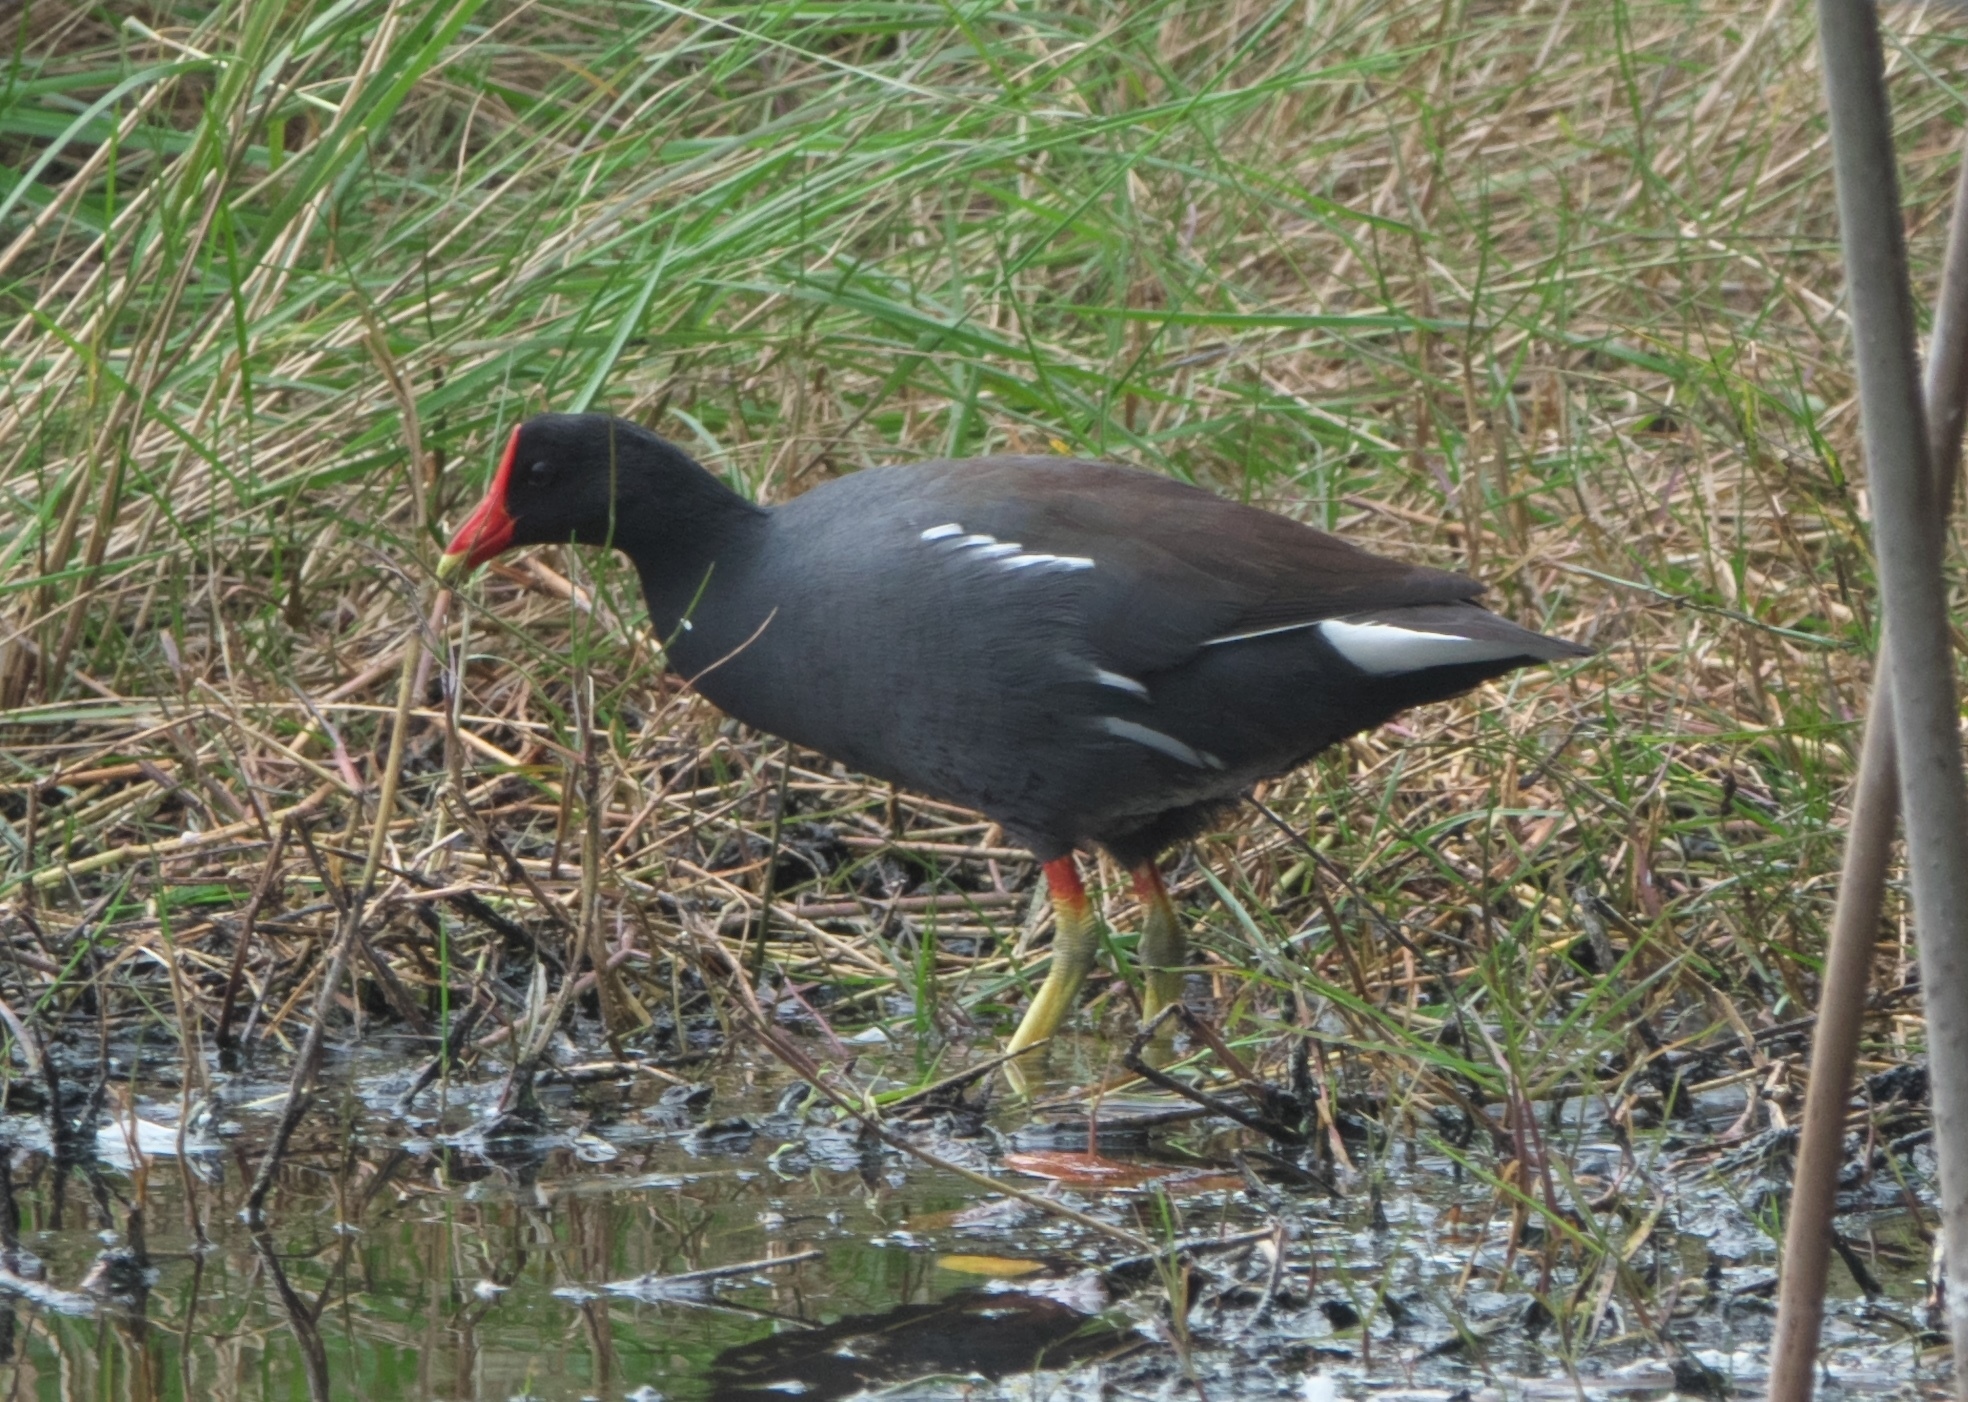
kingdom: Animalia
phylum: Chordata
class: Aves
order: Gruiformes
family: Rallidae
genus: Gallinula
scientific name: Gallinula chloropus
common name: Common moorhen
